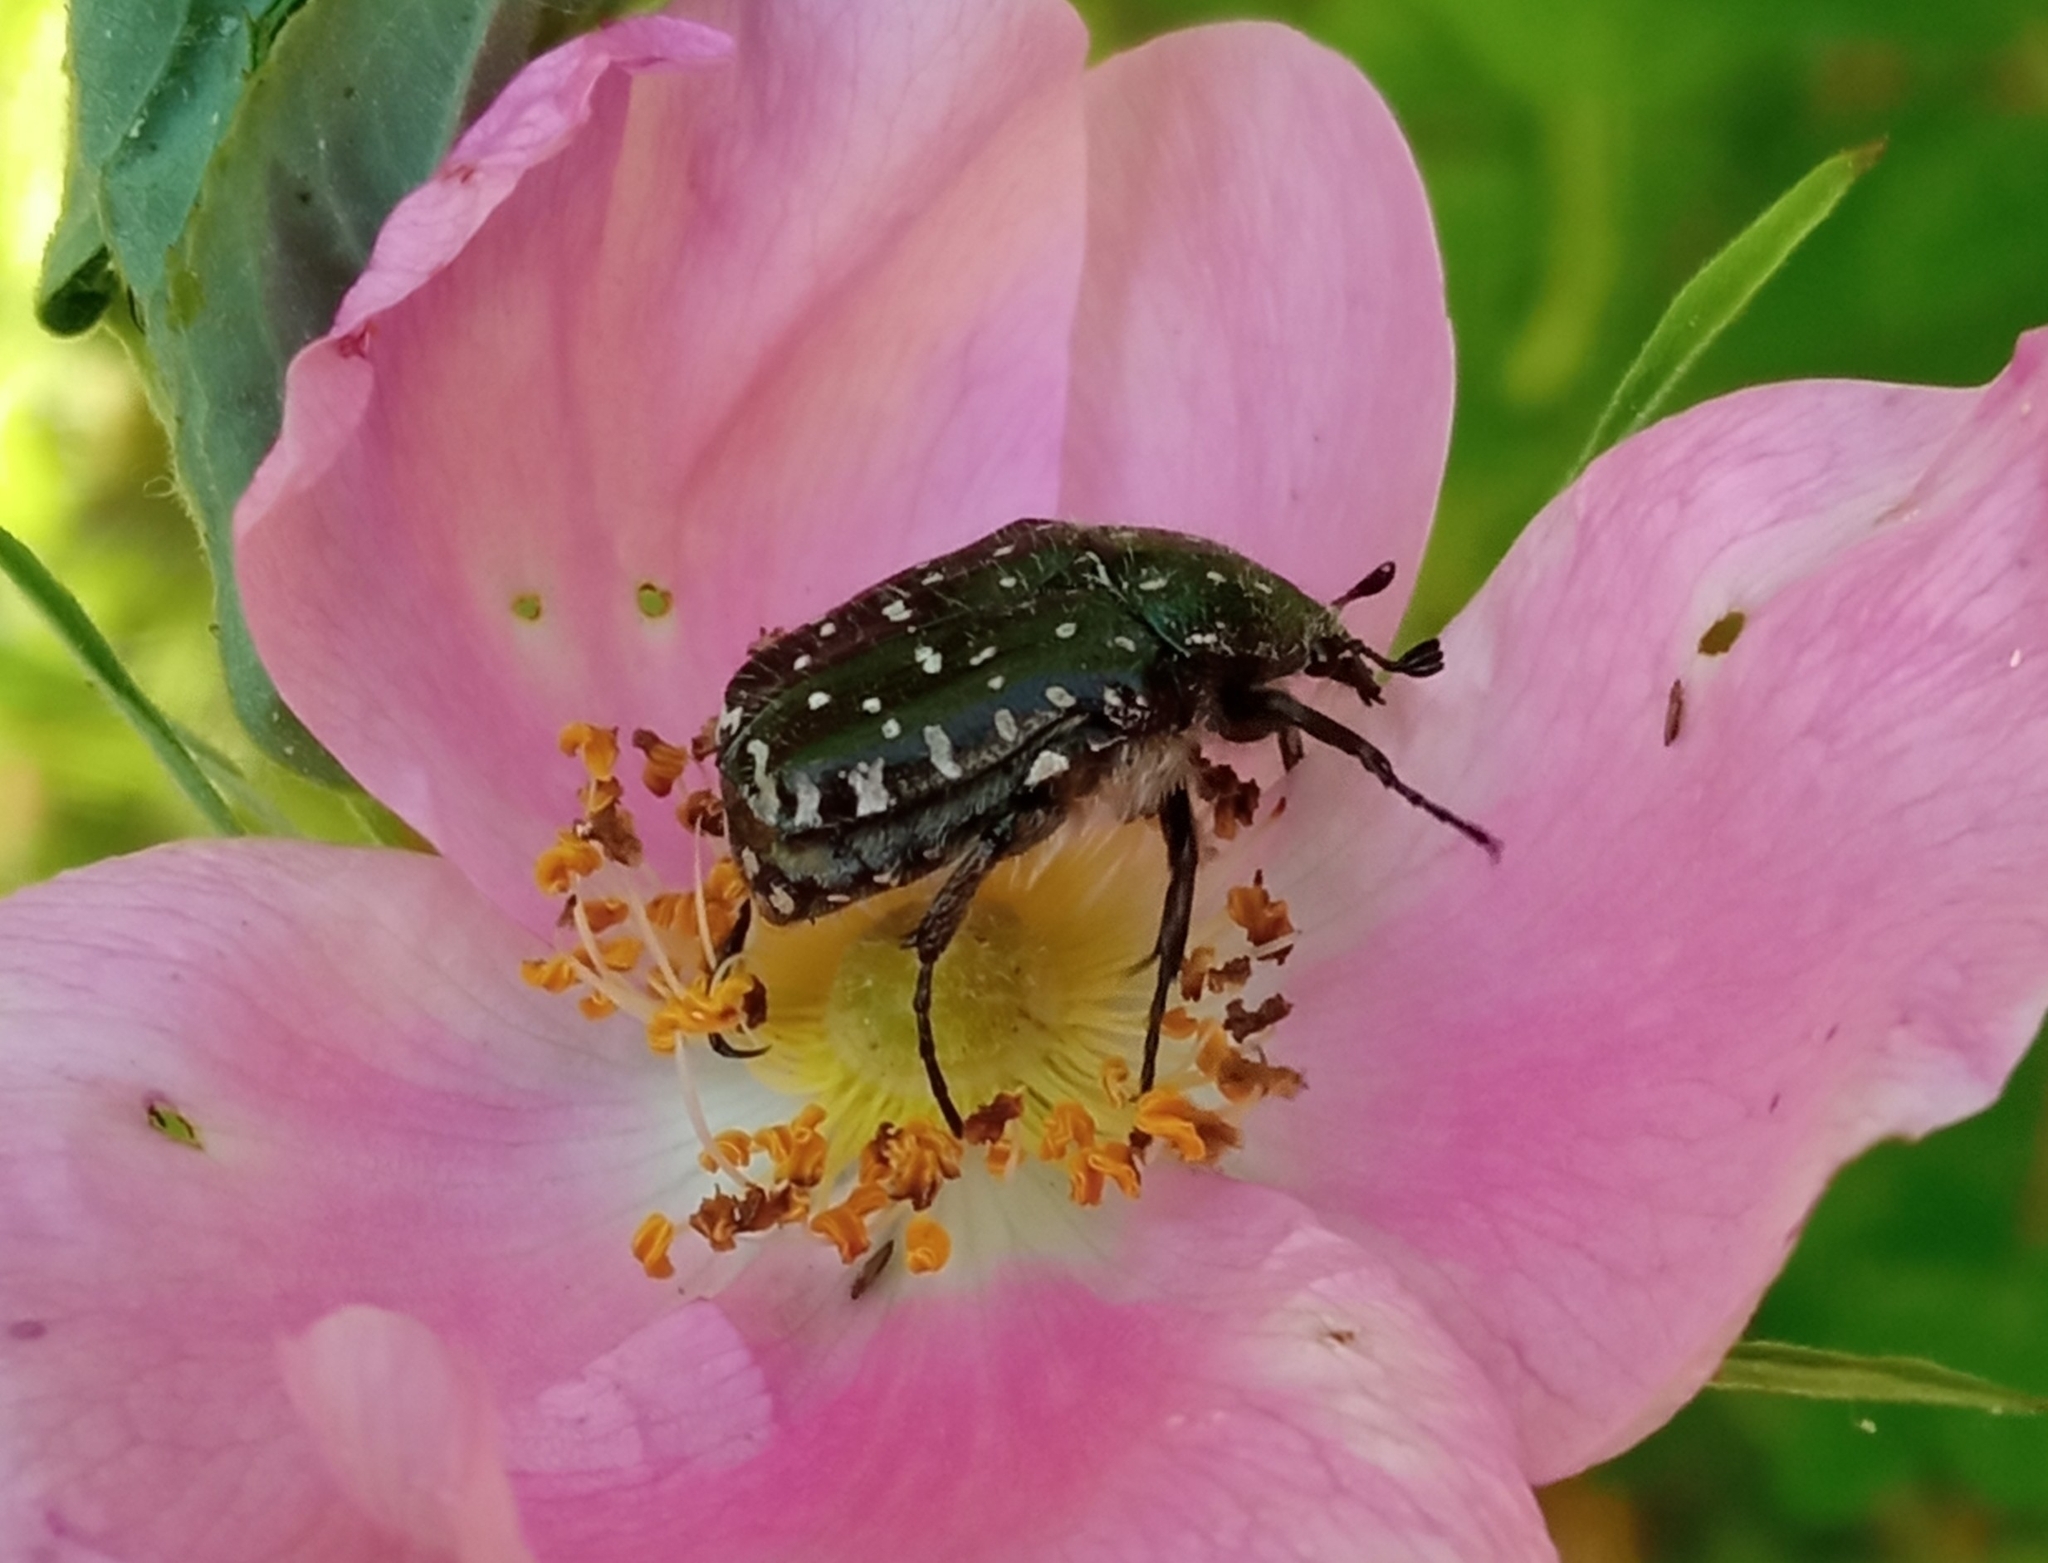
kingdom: Animalia
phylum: Arthropoda
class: Insecta
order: Coleoptera
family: Scarabaeidae
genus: Oxythyrea
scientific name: Oxythyrea funesta
